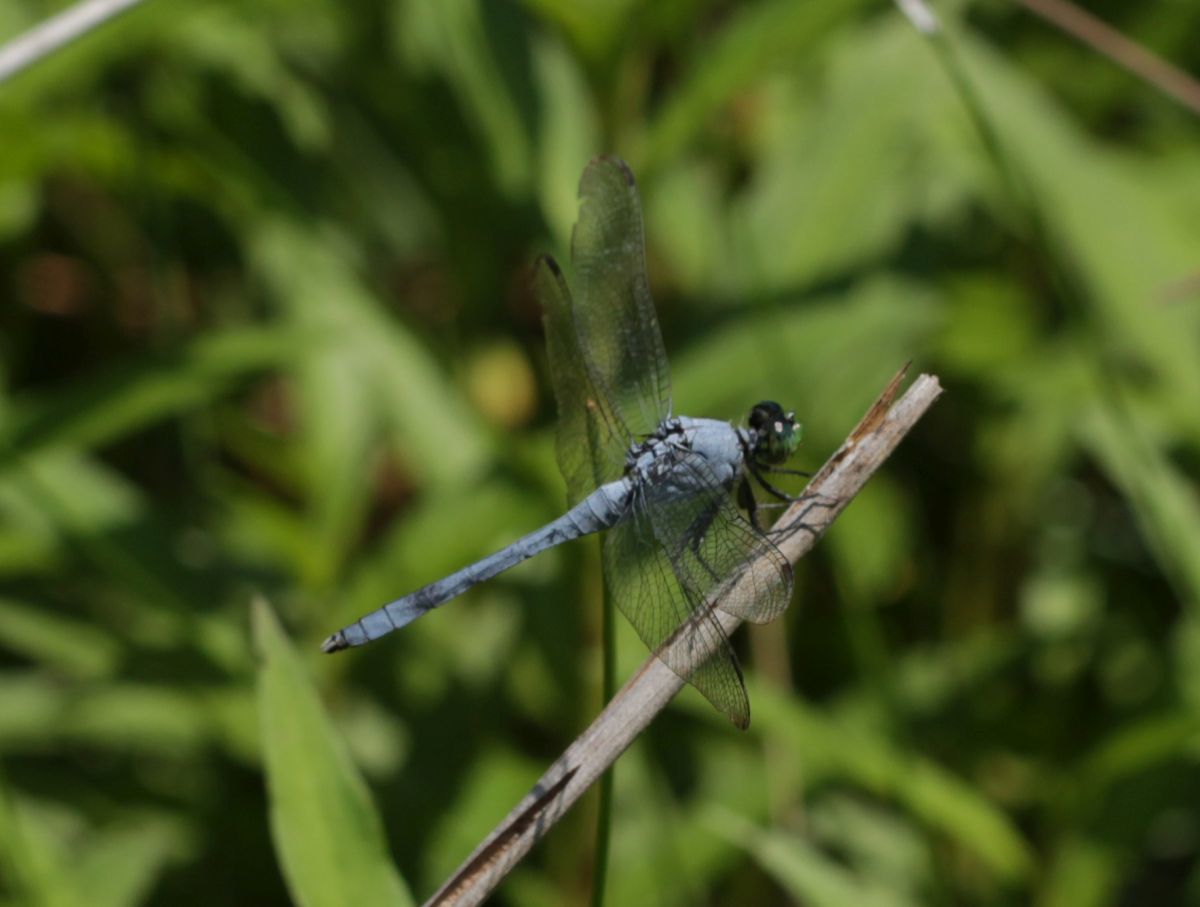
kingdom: Animalia
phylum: Arthropoda
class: Insecta
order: Odonata
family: Libellulidae
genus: Erythemis
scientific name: Erythemis simplicicollis
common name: Eastern pondhawk
